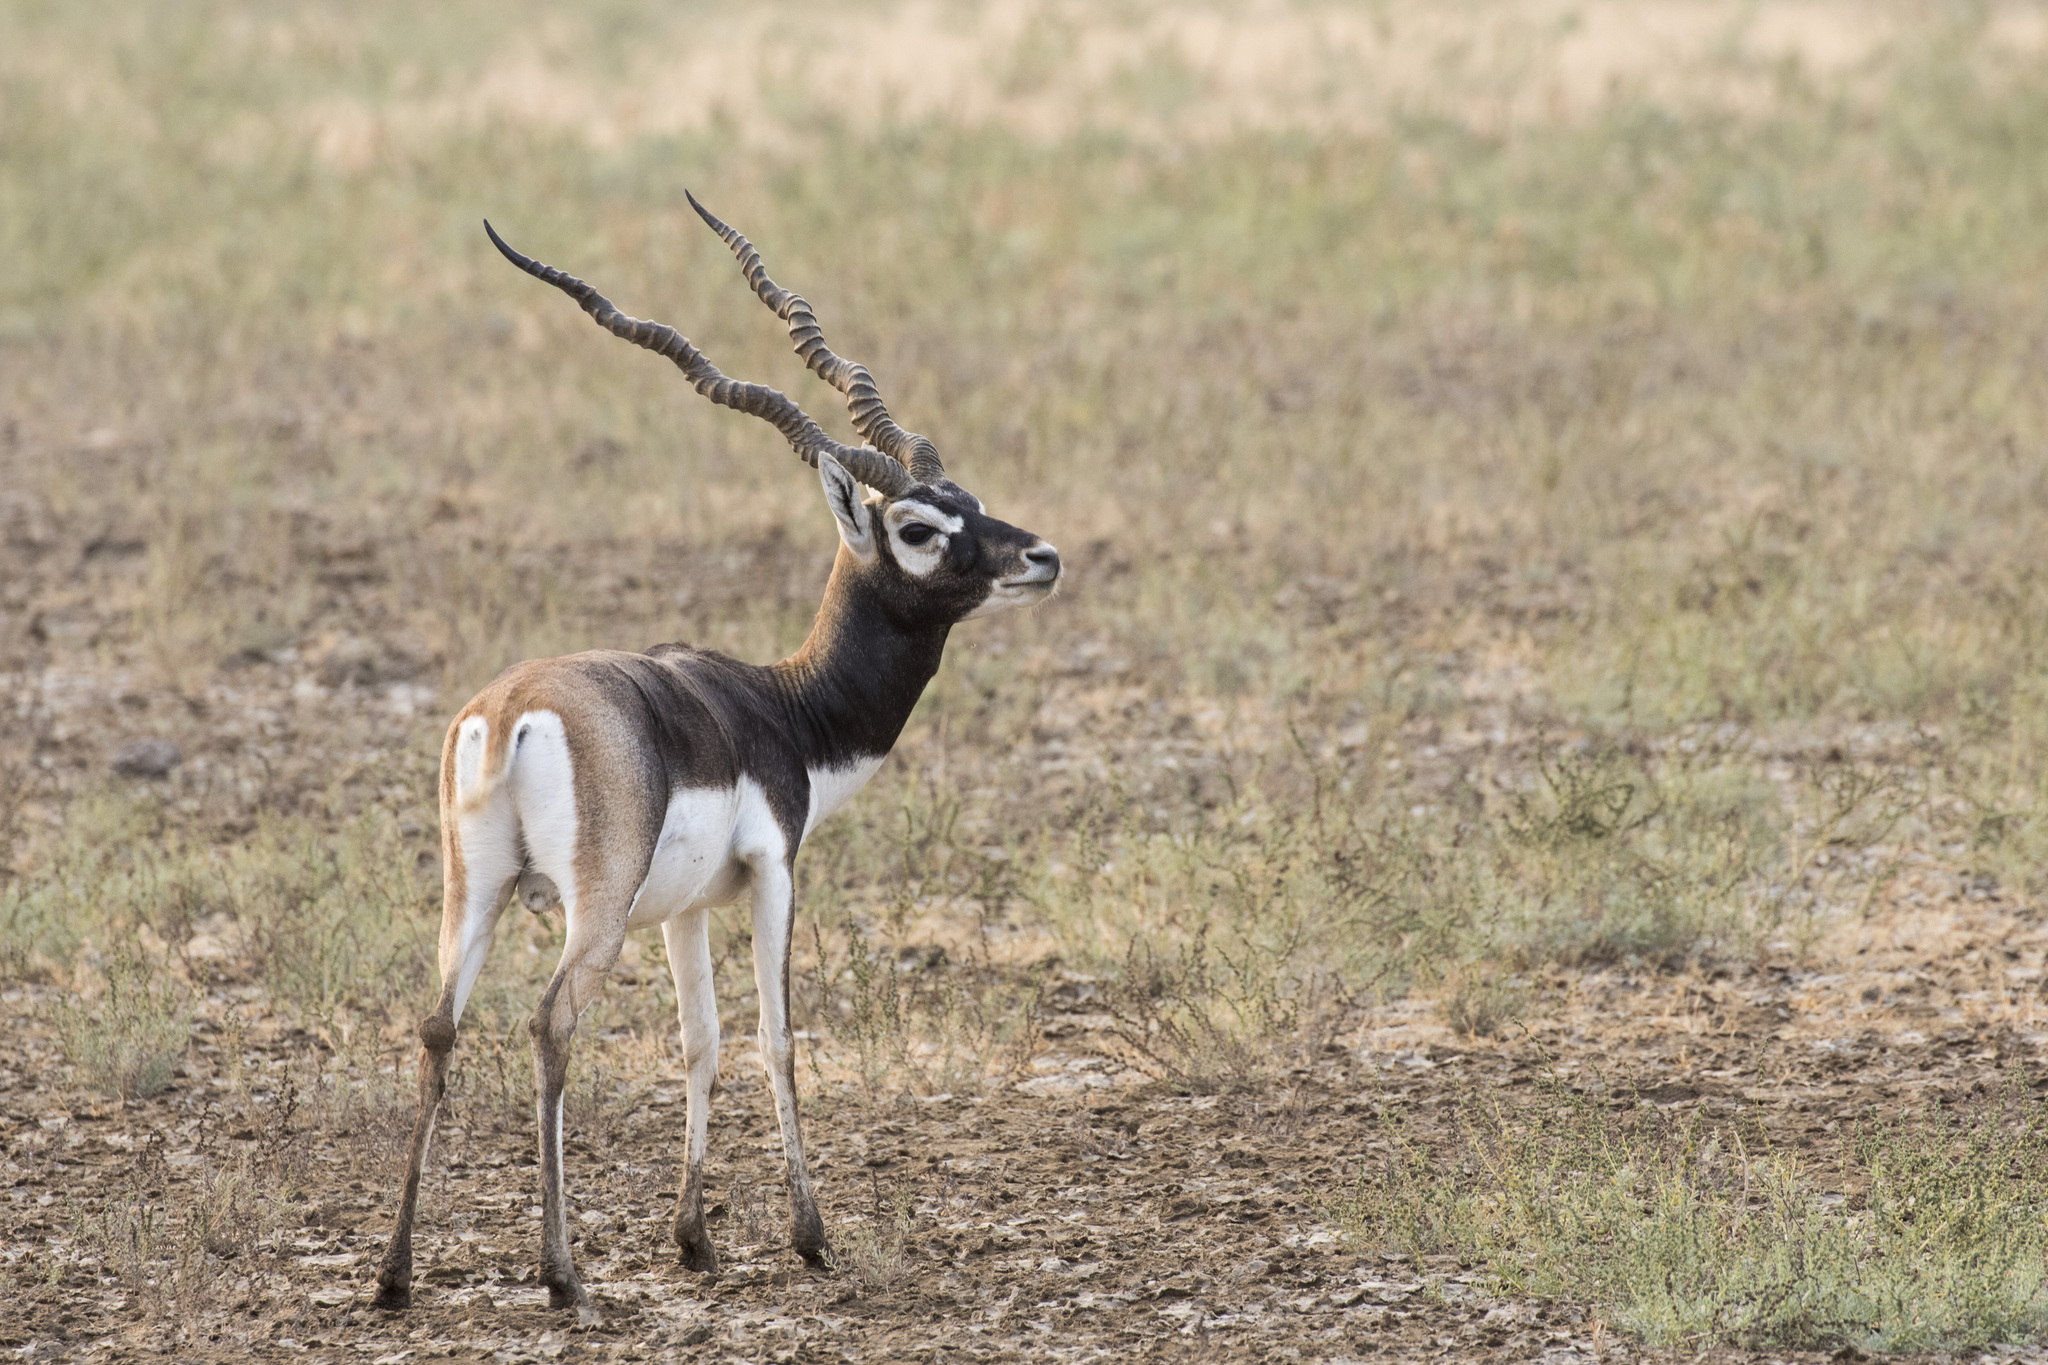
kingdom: Animalia
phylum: Chordata
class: Mammalia
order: Artiodactyla
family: Bovidae
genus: Antilope
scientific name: Antilope cervicapra
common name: Blackbuck
